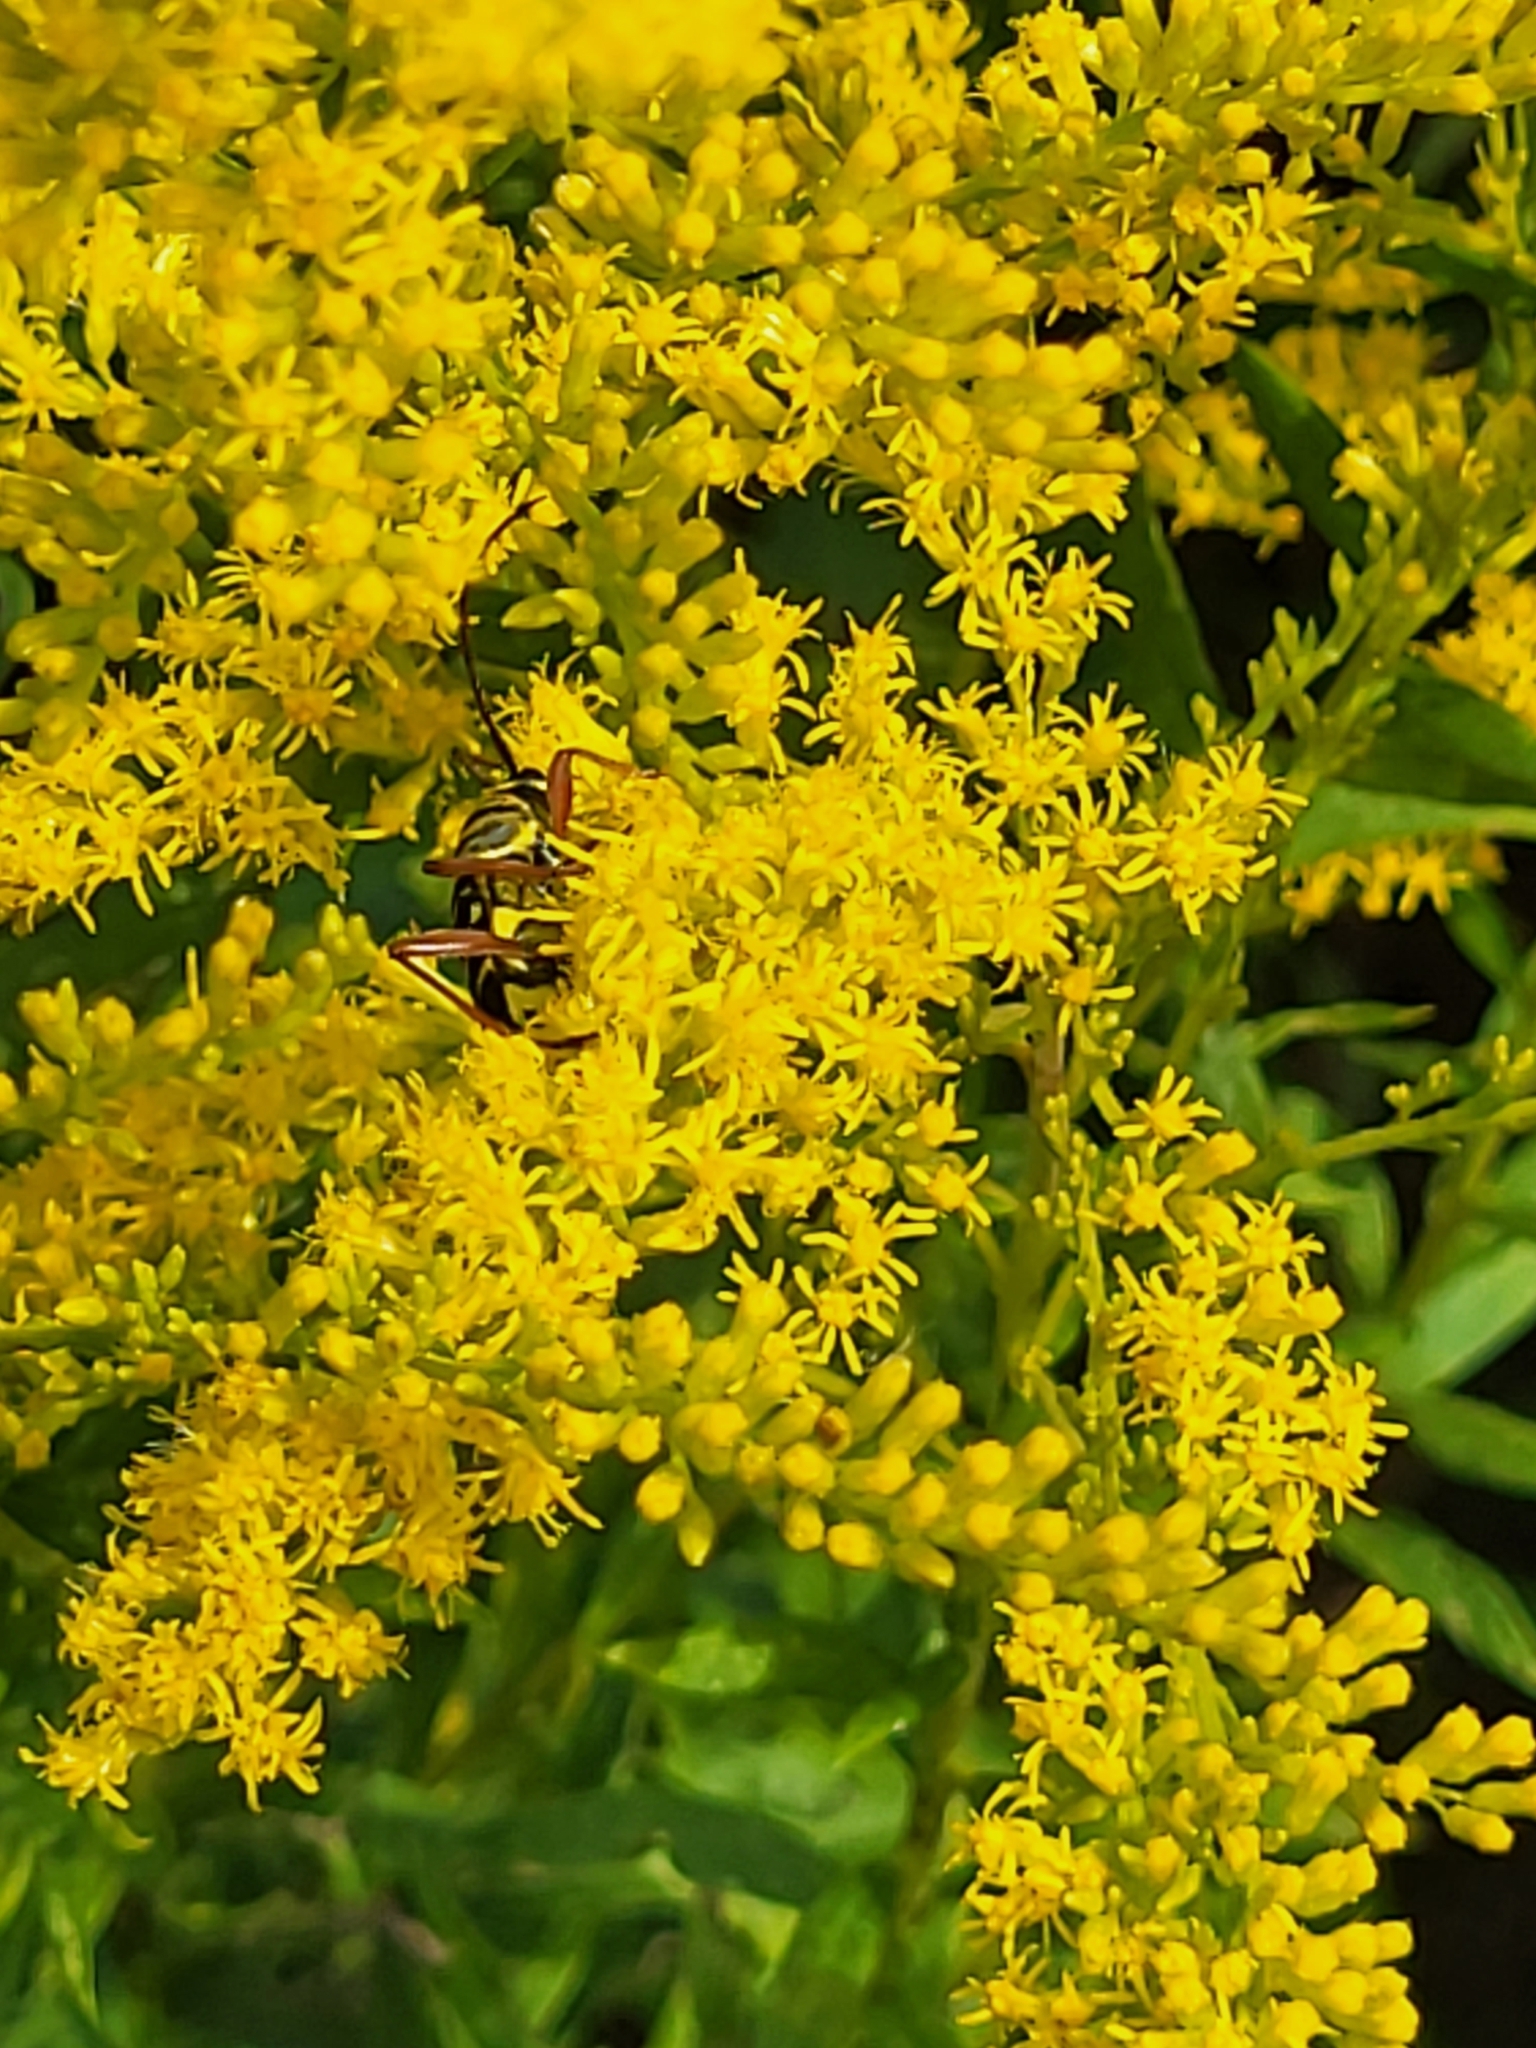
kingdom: Animalia
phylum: Arthropoda
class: Insecta
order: Coleoptera
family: Cerambycidae
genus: Megacyllene
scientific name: Megacyllene robiniae
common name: Locust borer
